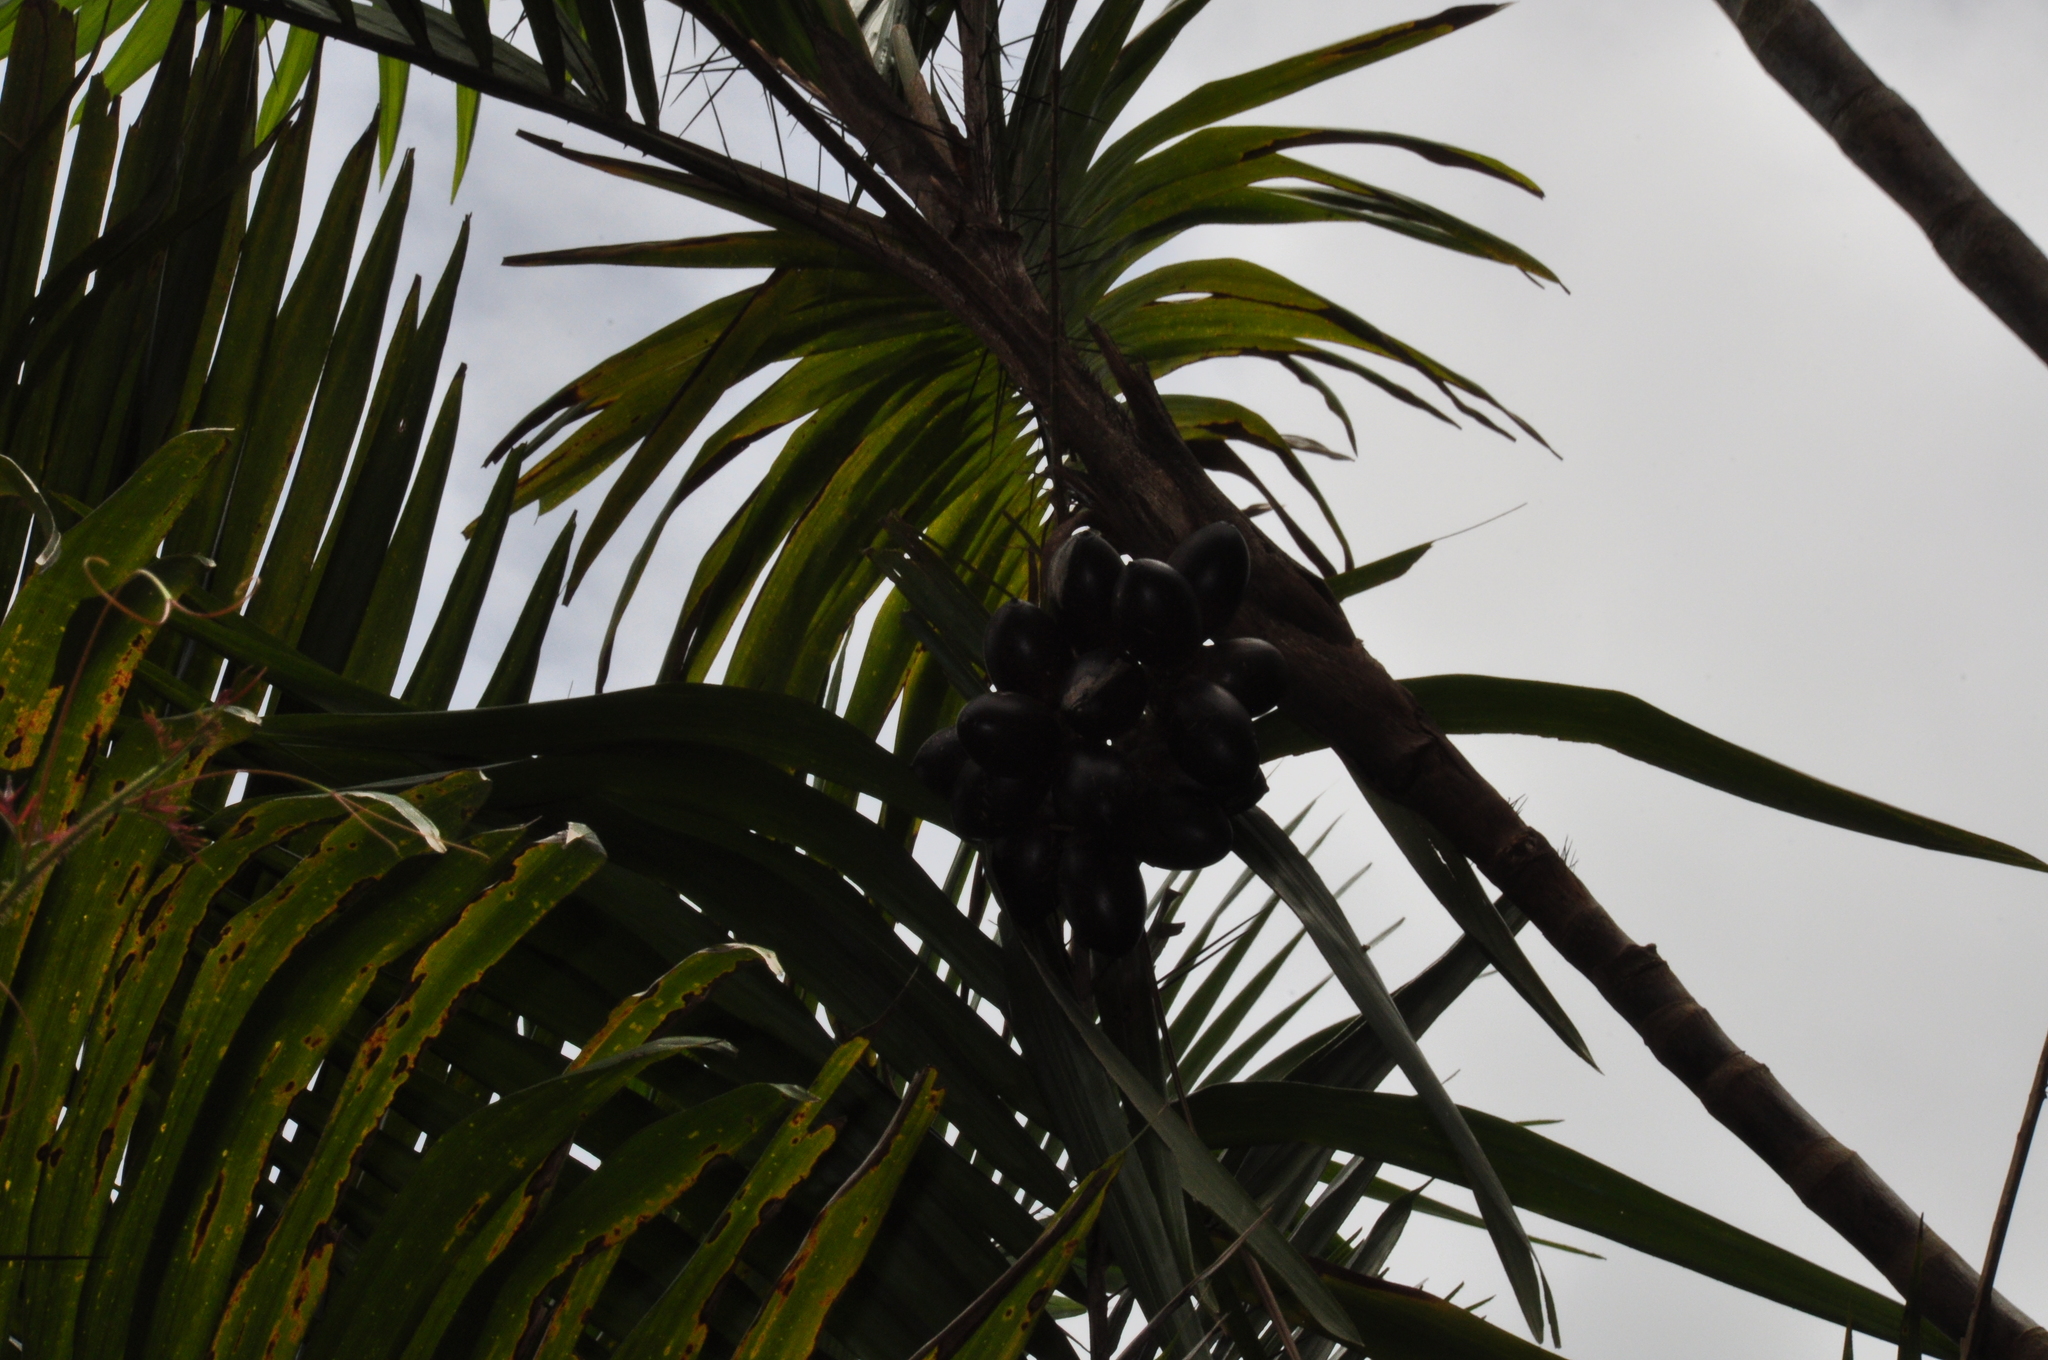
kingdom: Animalia
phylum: Chordata
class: Squamata
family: Viperidae
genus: Bothrops
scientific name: Bothrops asper
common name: Terciopelo
